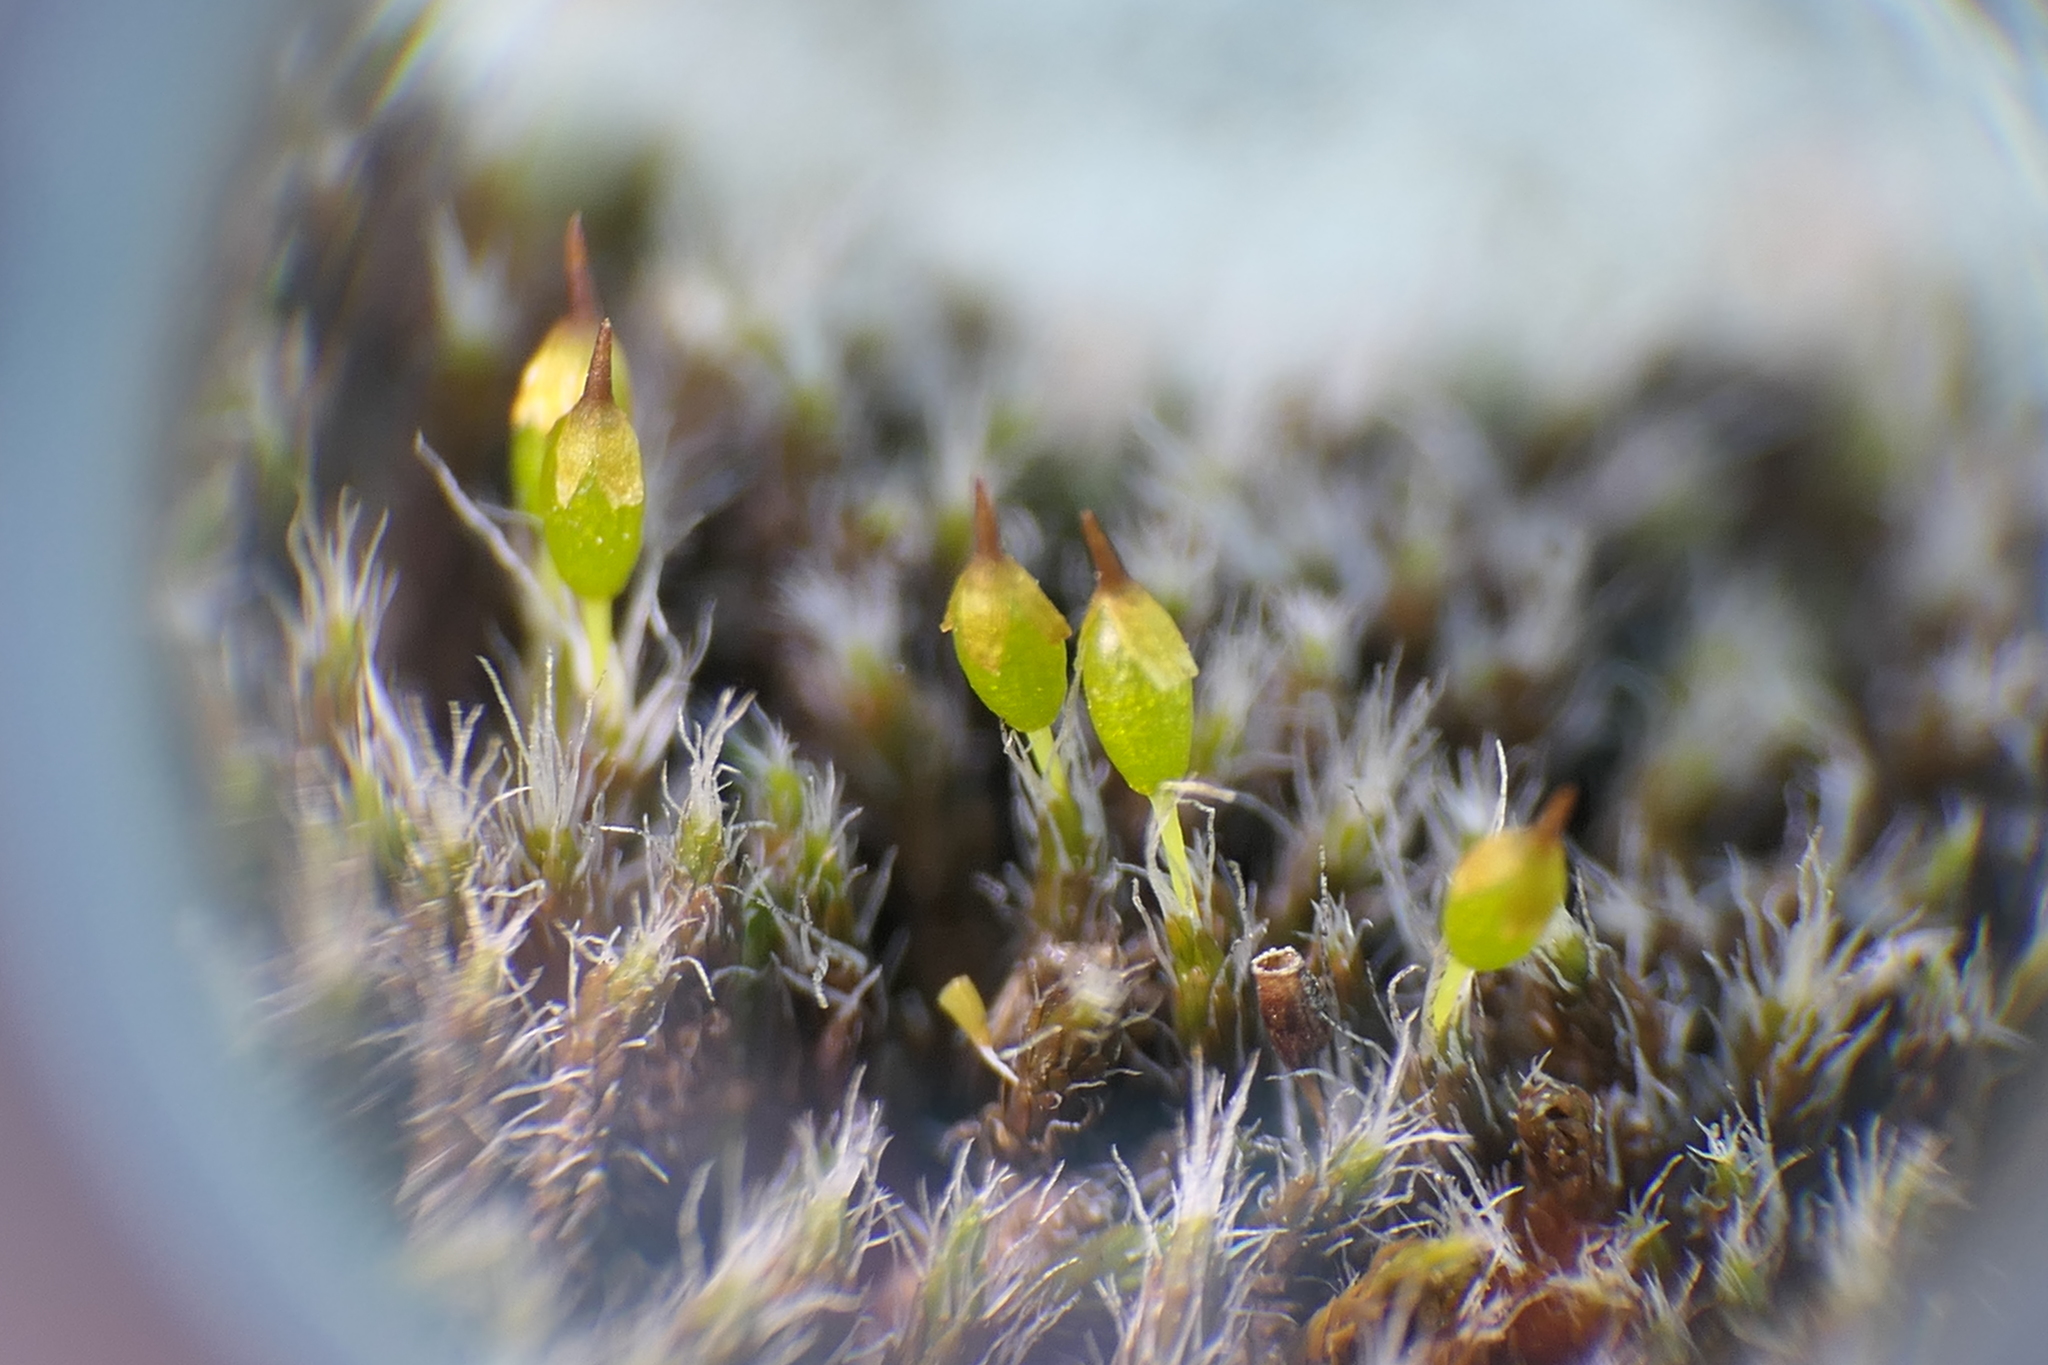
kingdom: Plantae
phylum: Bryophyta
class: Bryopsida
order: Grimmiales
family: Grimmiaceae
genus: Grimmia
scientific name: Grimmia laevigata
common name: Hoary grimmia
